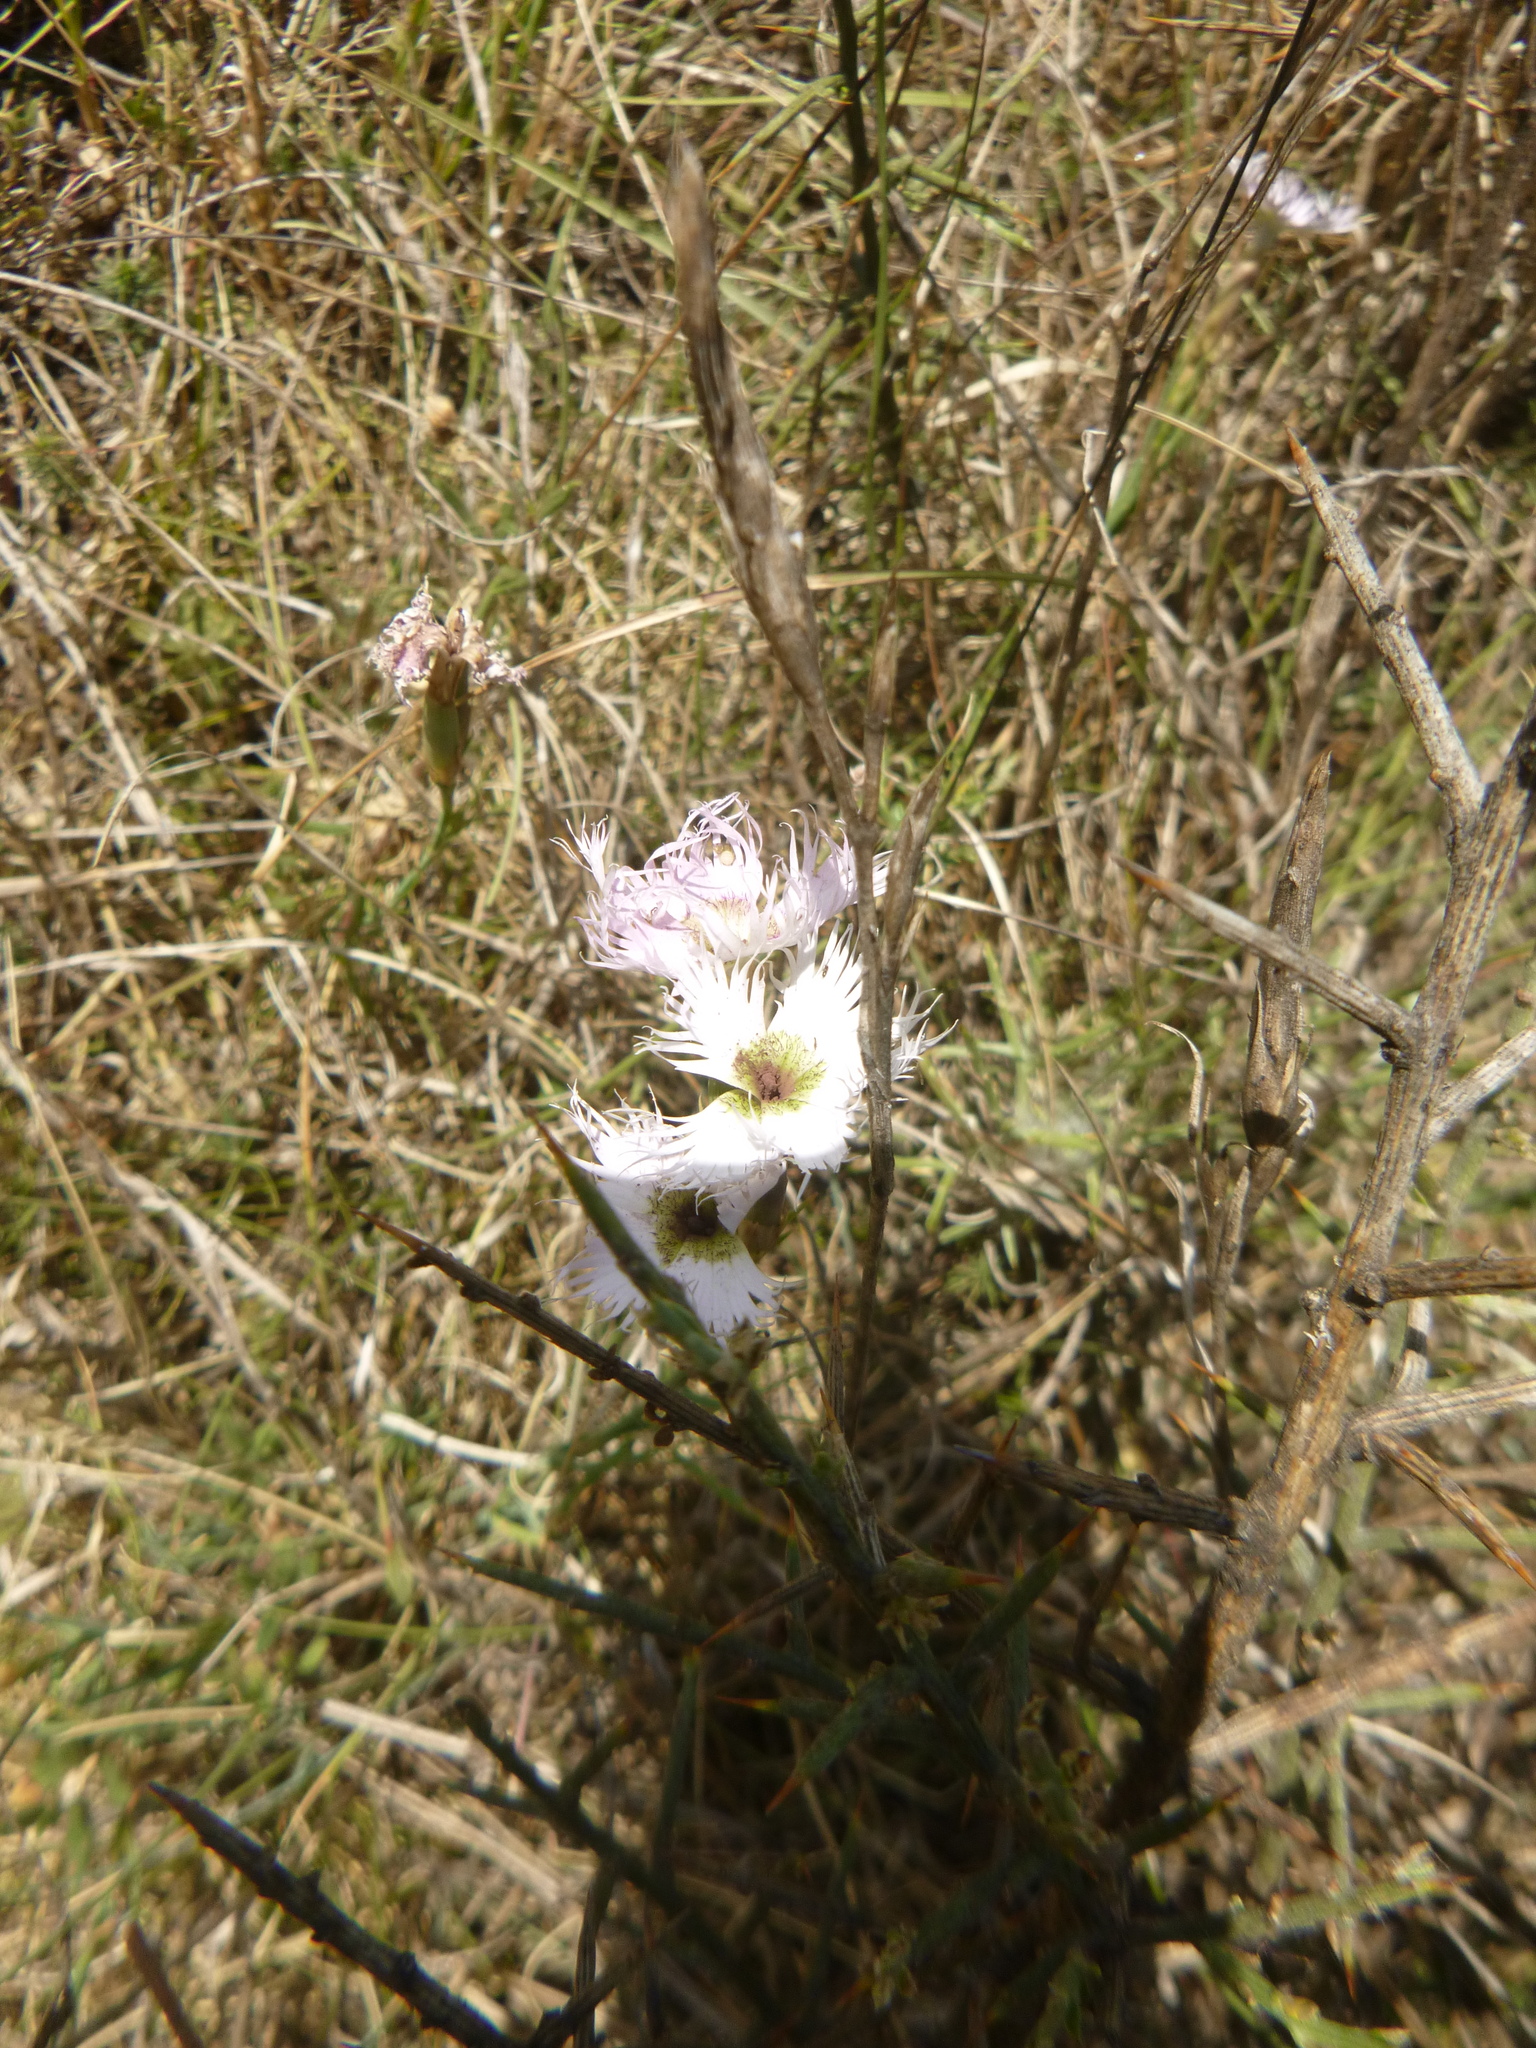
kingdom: Plantae
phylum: Tracheophyta
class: Magnoliopsida
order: Caryophyllales
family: Caryophyllaceae
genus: Dianthus
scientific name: Dianthus hyssopifolius
